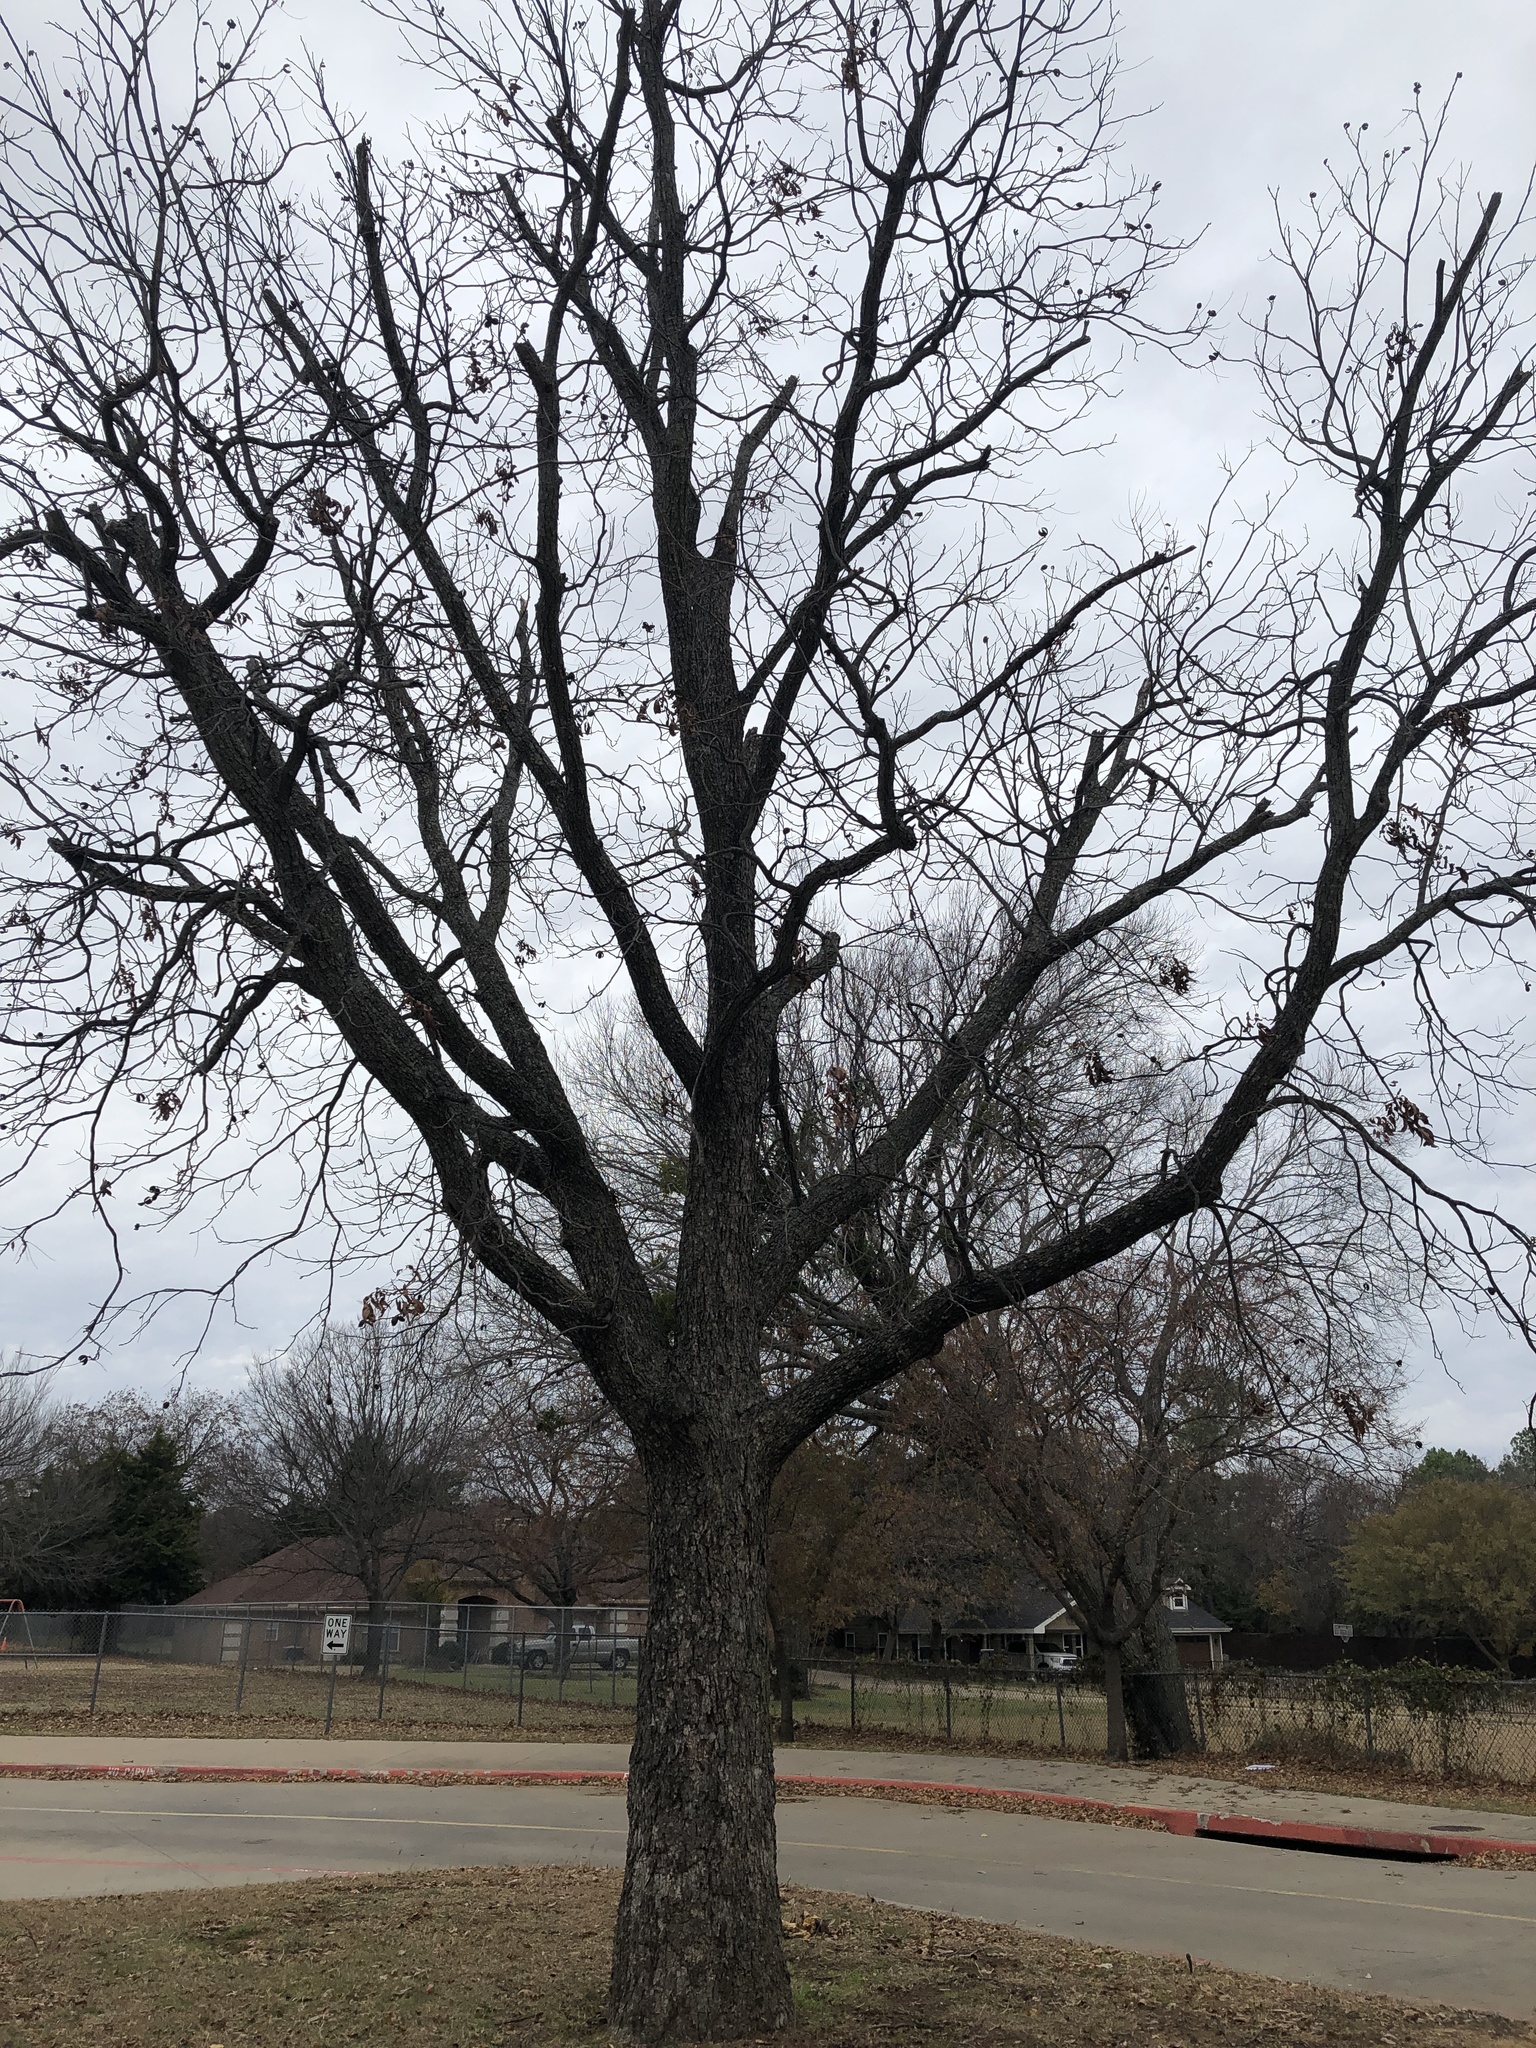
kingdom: Plantae
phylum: Tracheophyta
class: Magnoliopsida
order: Fagales
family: Juglandaceae
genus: Carya
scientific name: Carya illinoinensis
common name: Pecan
